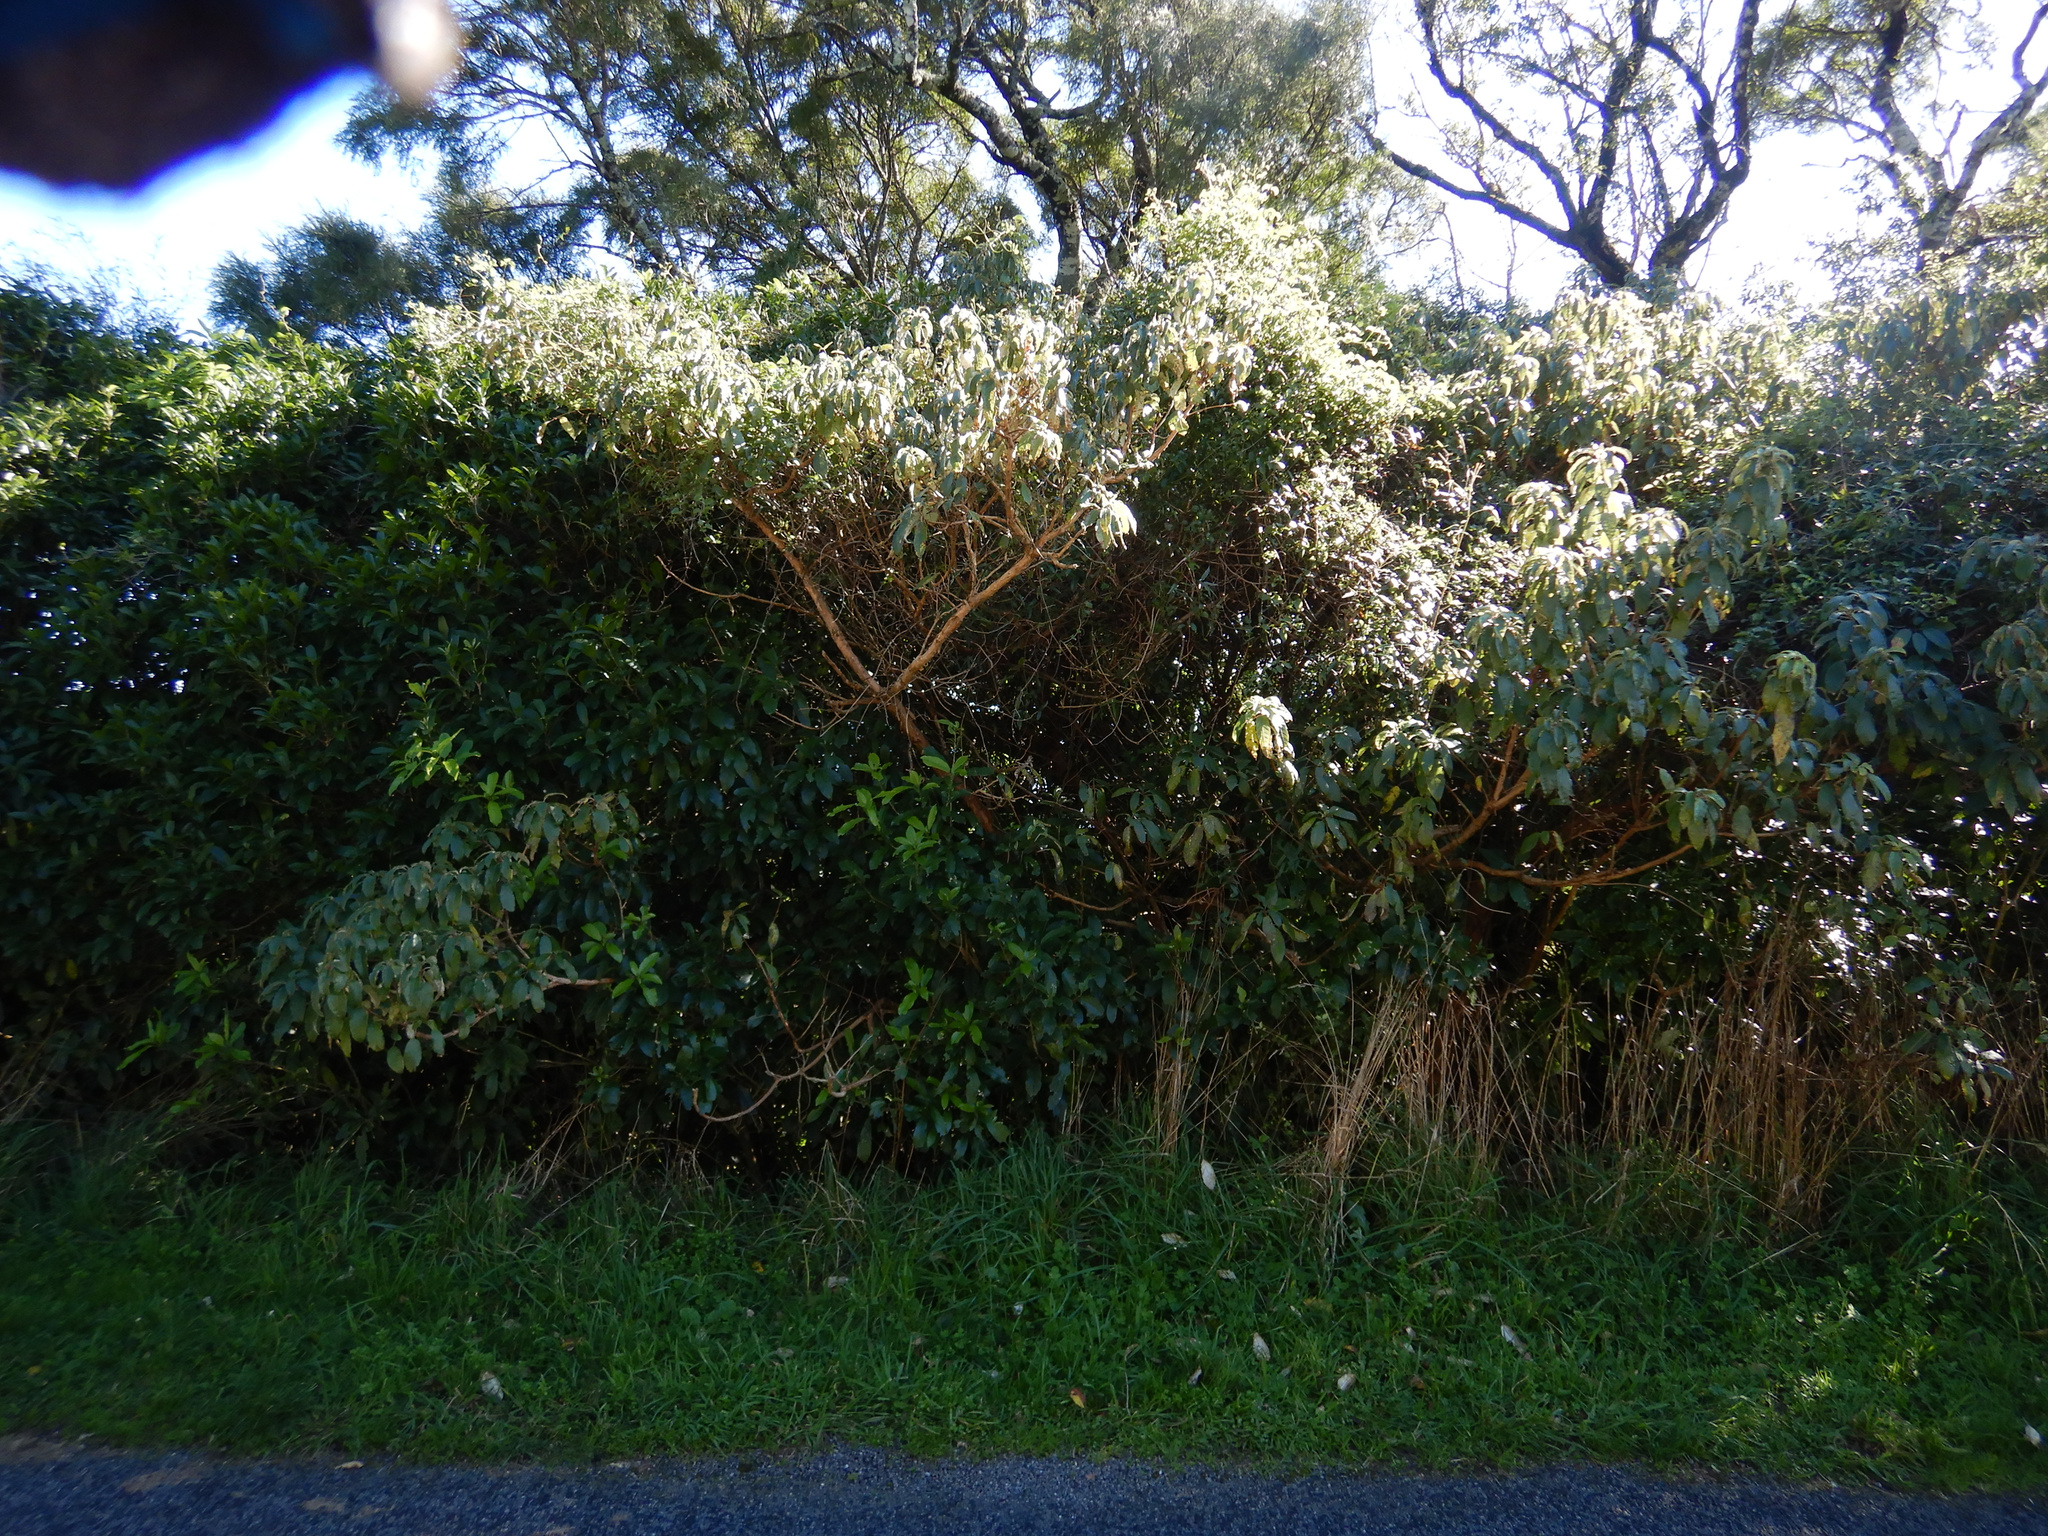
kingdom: Plantae
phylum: Tracheophyta
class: Magnoliopsida
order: Myrtales
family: Onagraceae
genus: Fuchsia
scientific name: Fuchsia excorticata
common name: Tree fuchsia
